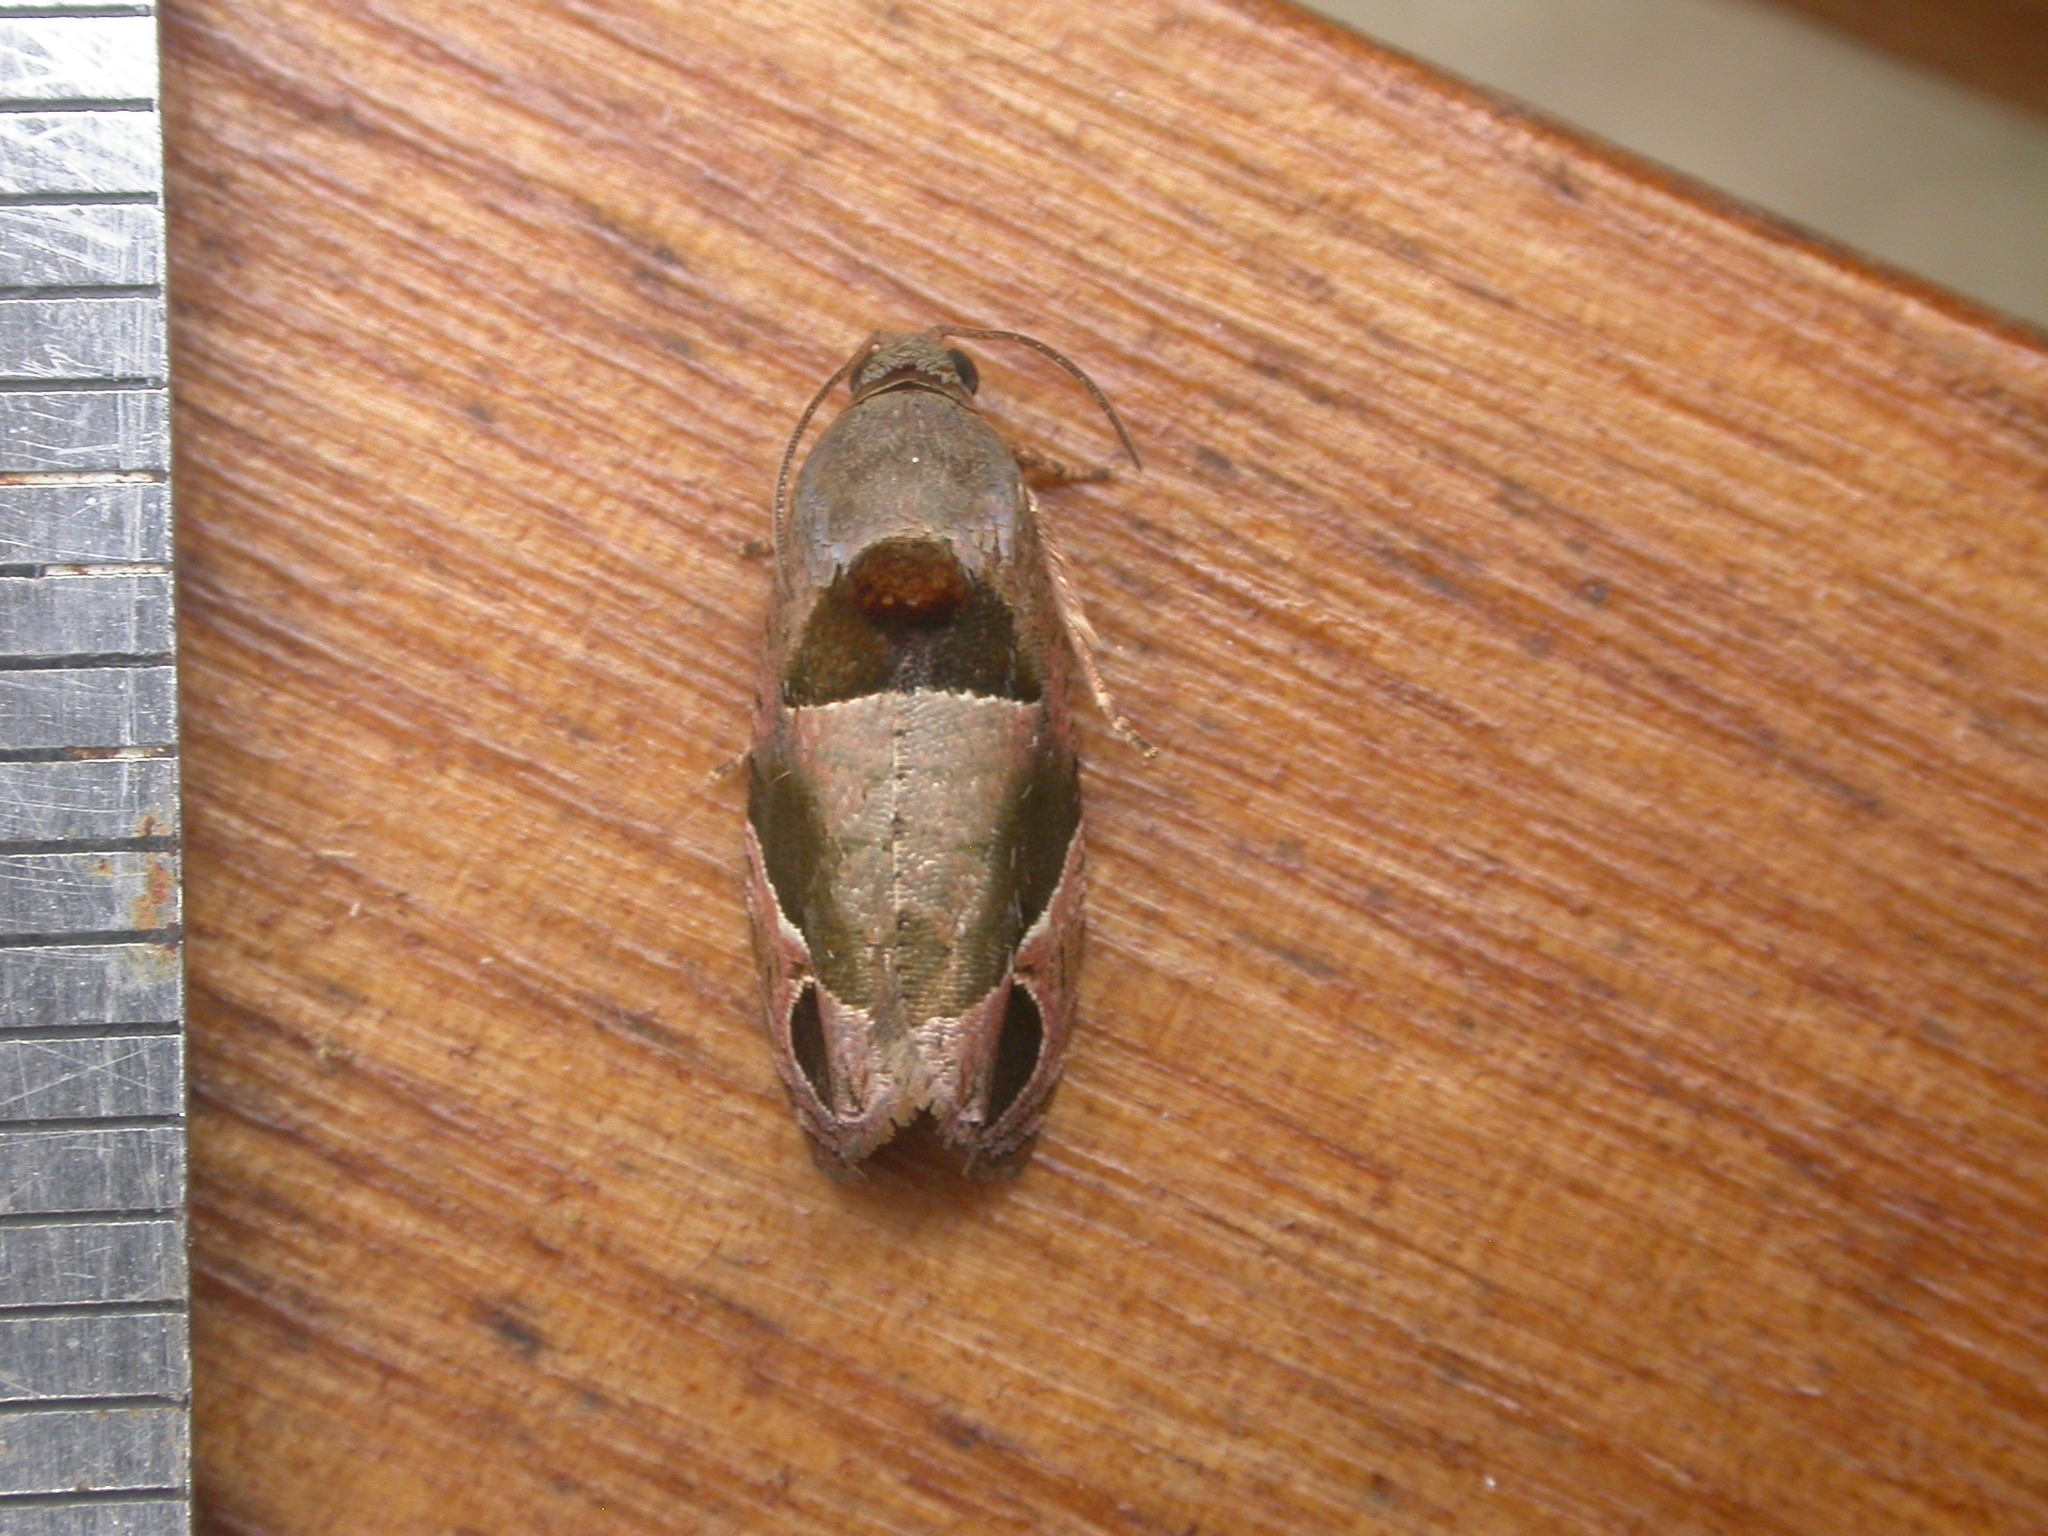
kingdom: Animalia
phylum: Arthropoda
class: Insecta
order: Lepidoptera
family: Tortricidae
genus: Sorolopha
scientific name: Sorolopha cyclotoma
